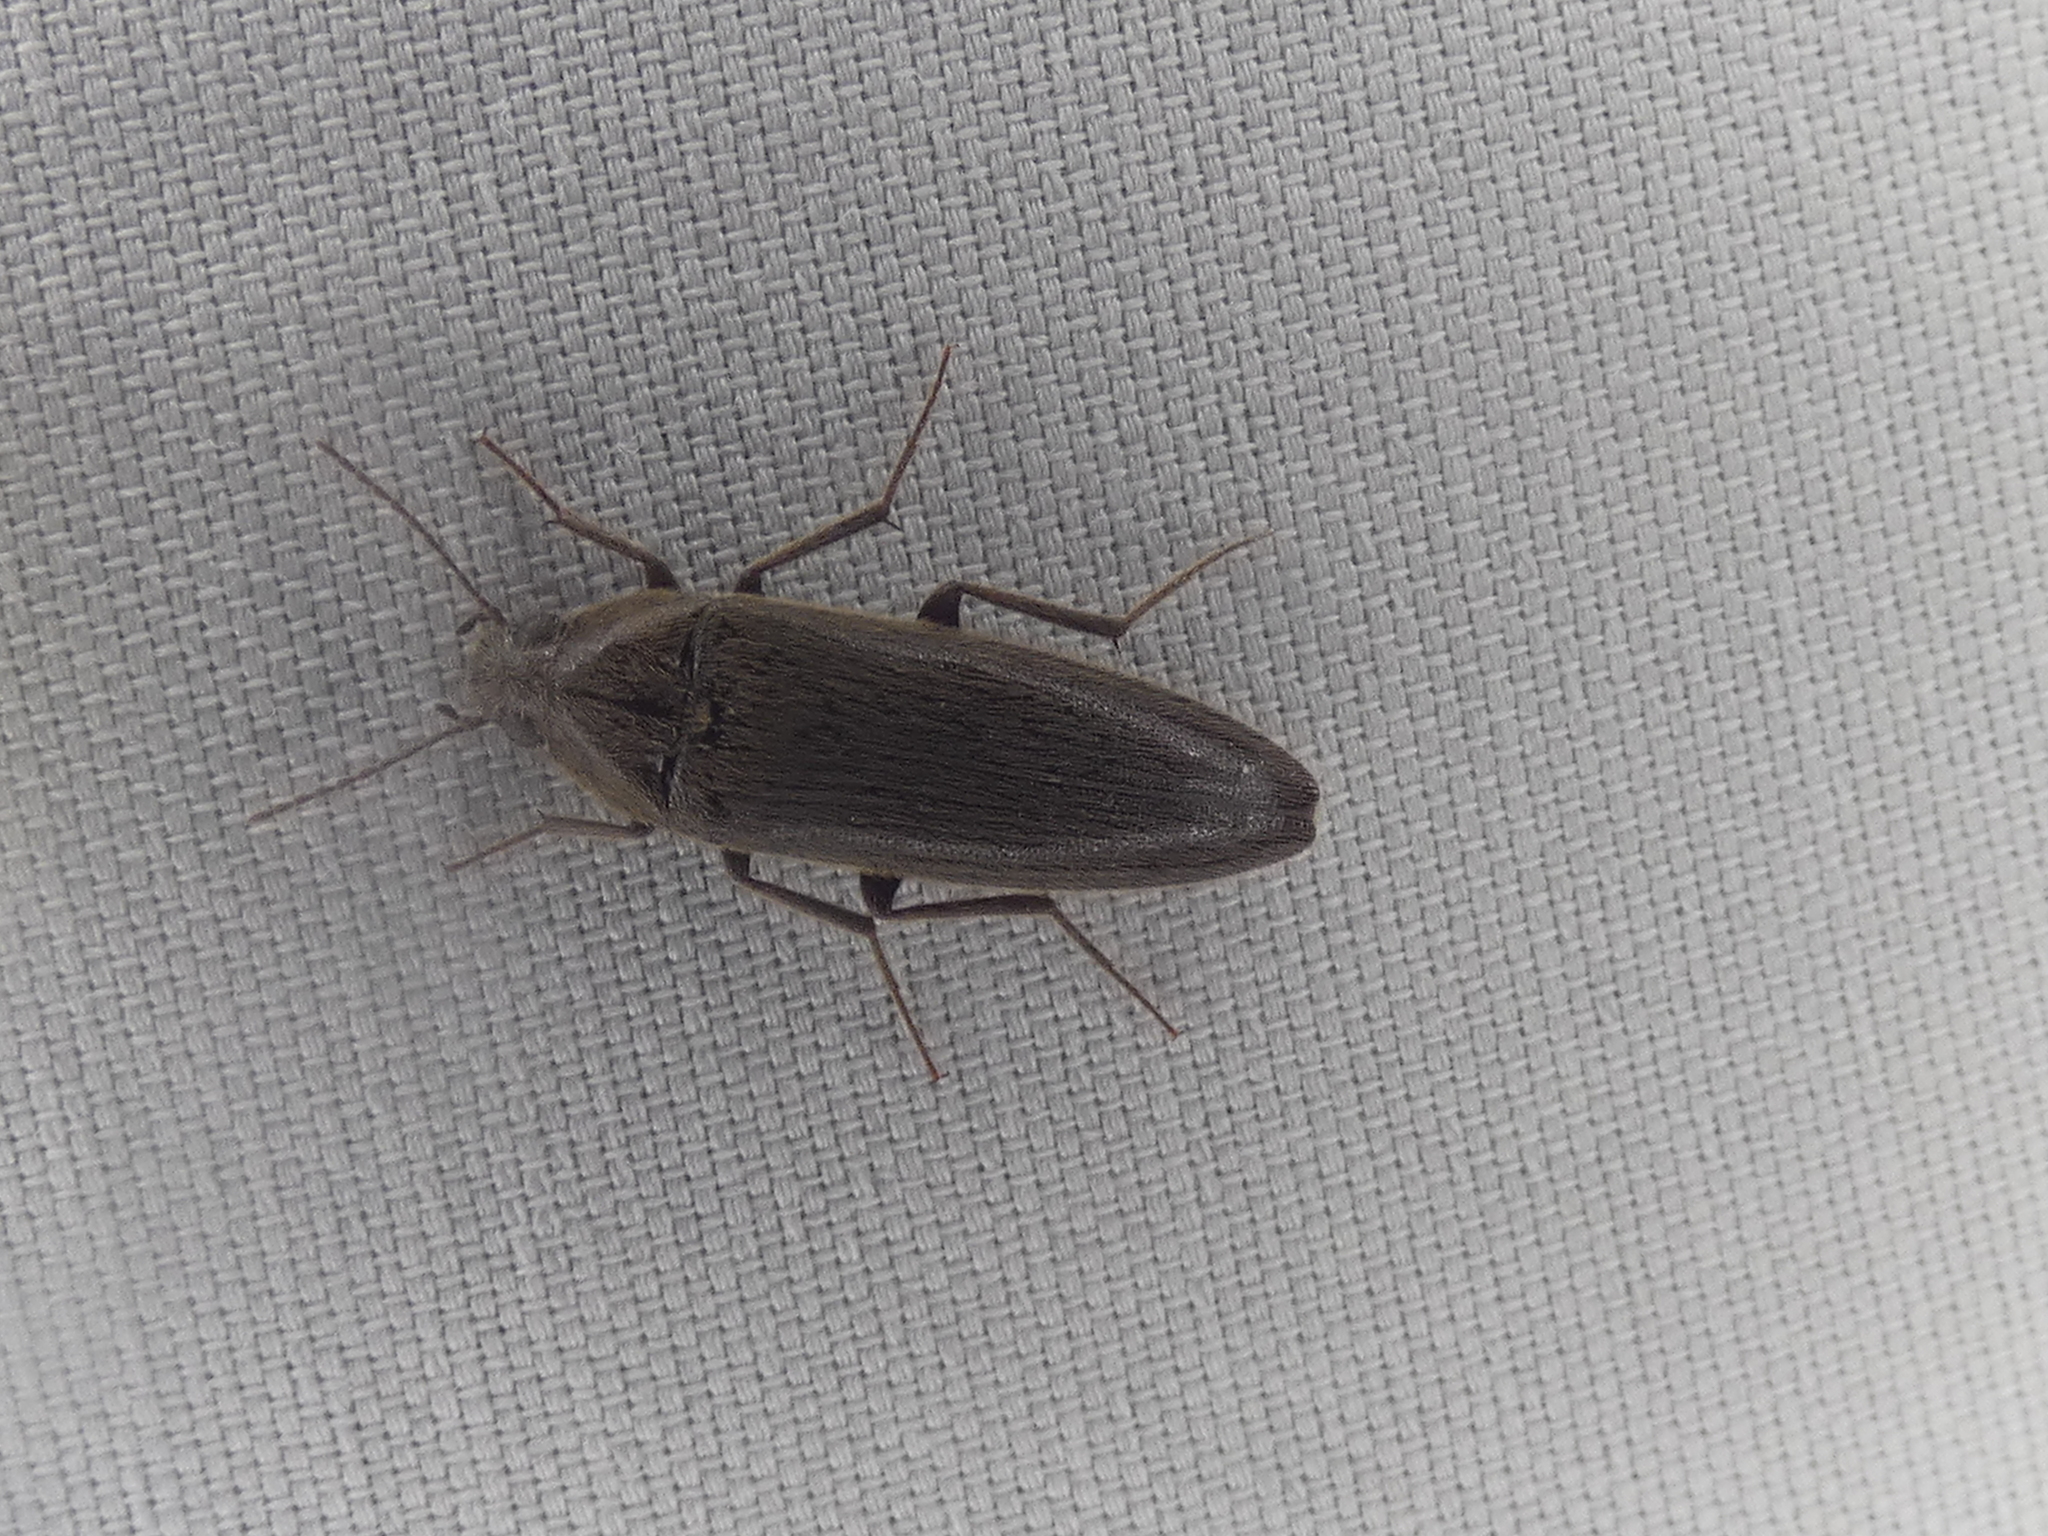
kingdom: Animalia
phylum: Arthropoda
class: Insecta
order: Coleoptera
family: Synchroidae
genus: Synchroa
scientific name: Synchroa punctata
